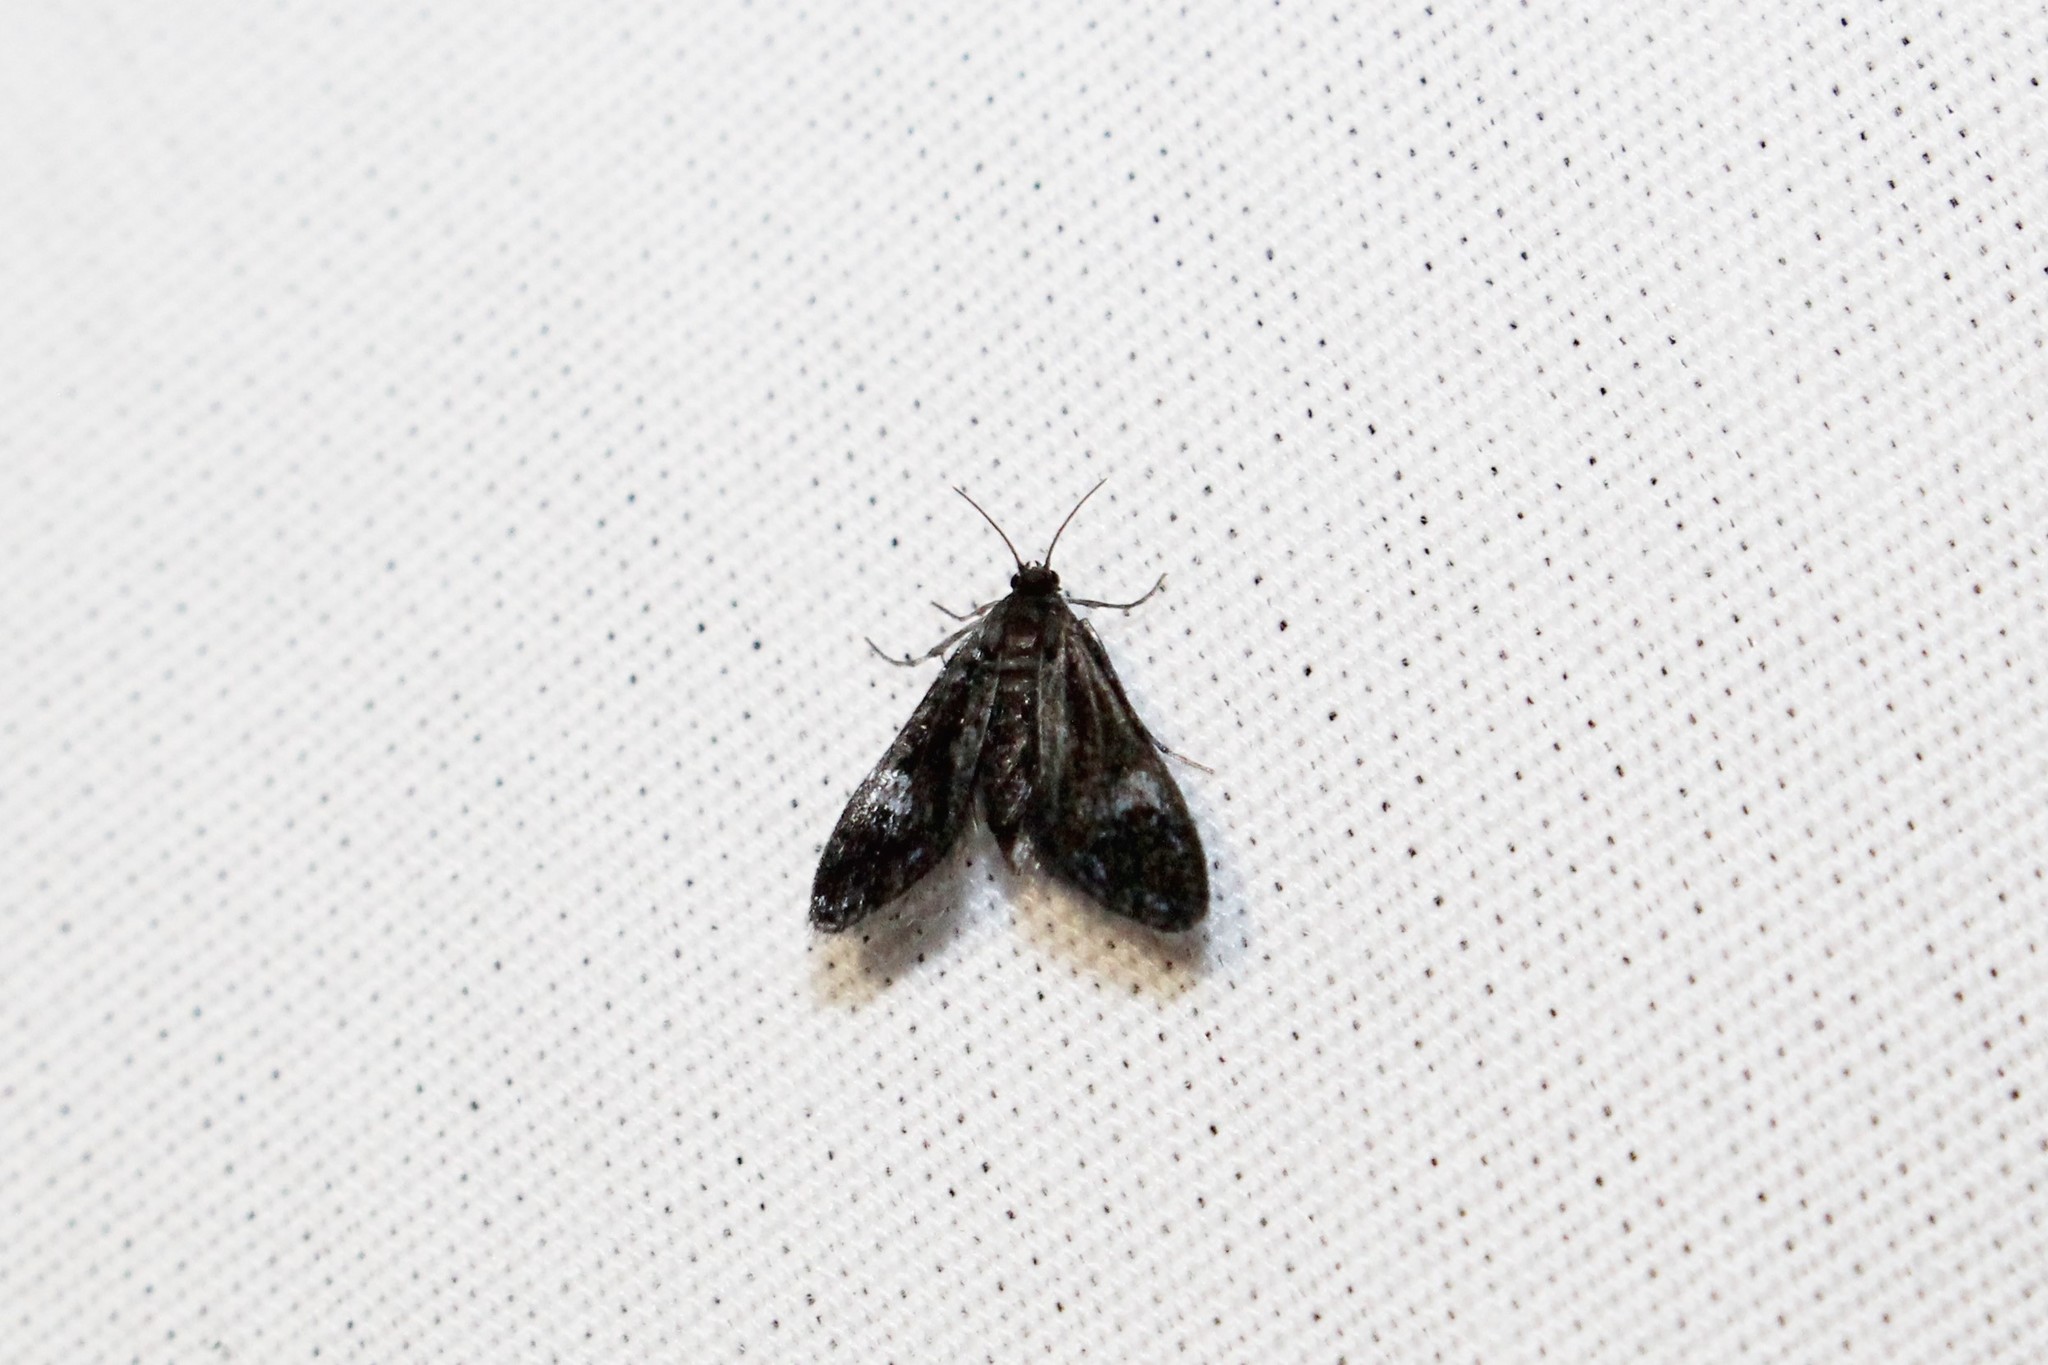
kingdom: Animalia
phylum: Arthropoda
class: Insecta
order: Lepidoptera
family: Crambidae
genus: Elophila
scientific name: Elophila tinealis
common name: Black duckweed moth
